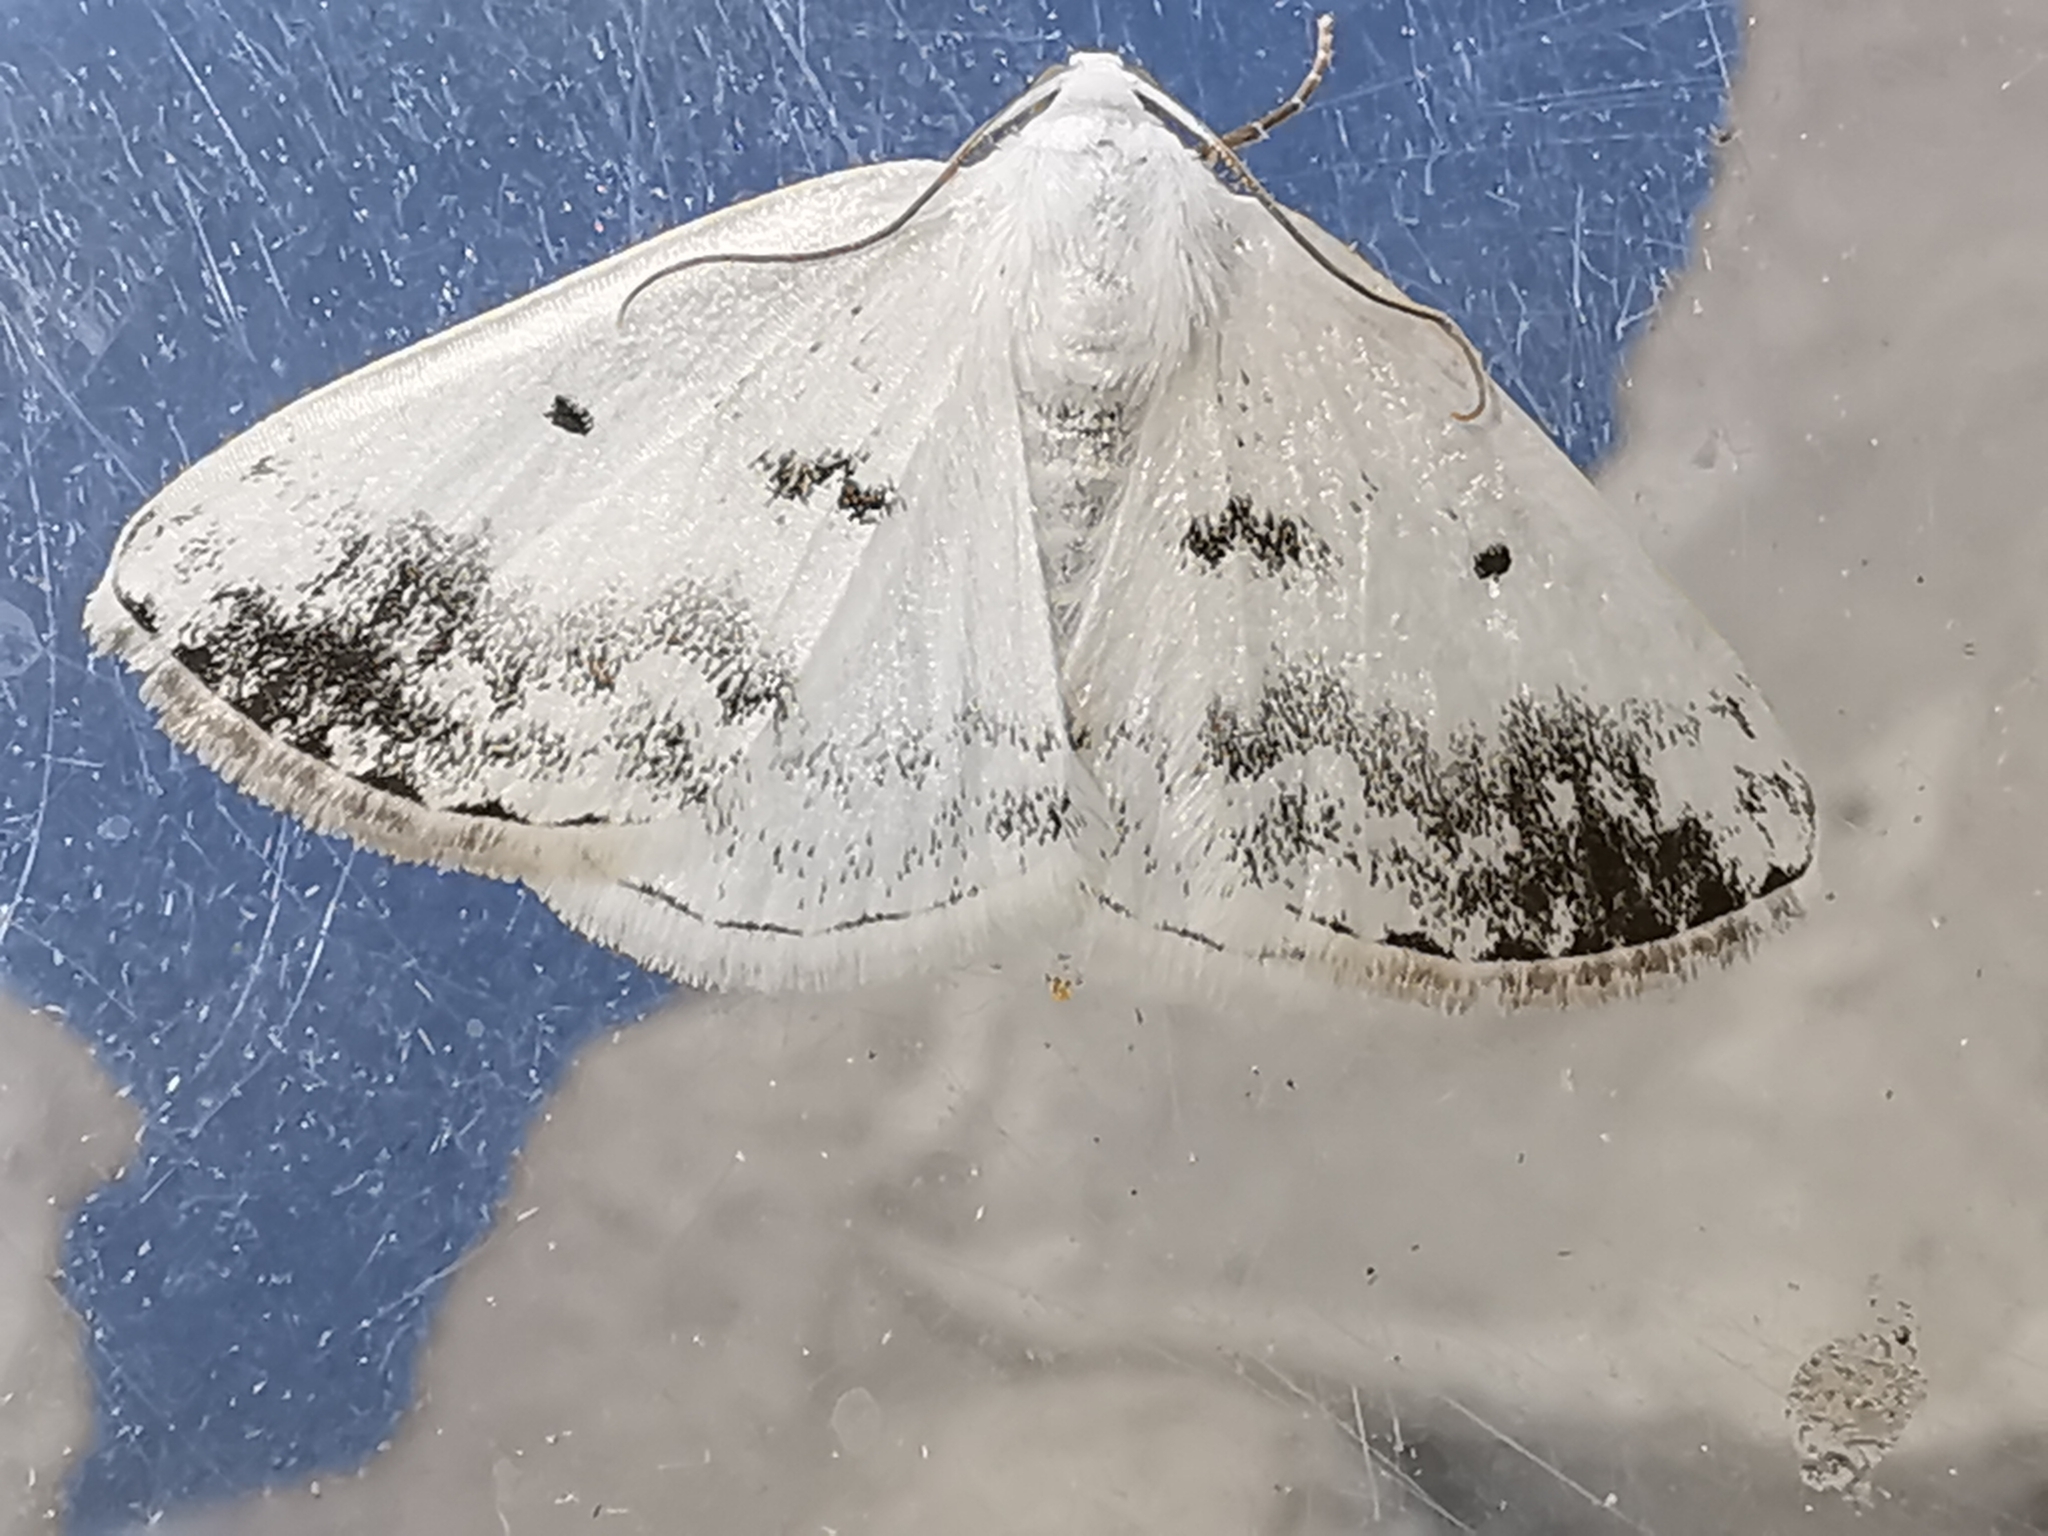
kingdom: Animalia
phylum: Arthropoda
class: Insecta
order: Lepidoptera
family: Geometridae
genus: Lomographa
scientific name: Lomographa temerata
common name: Clouded silver
